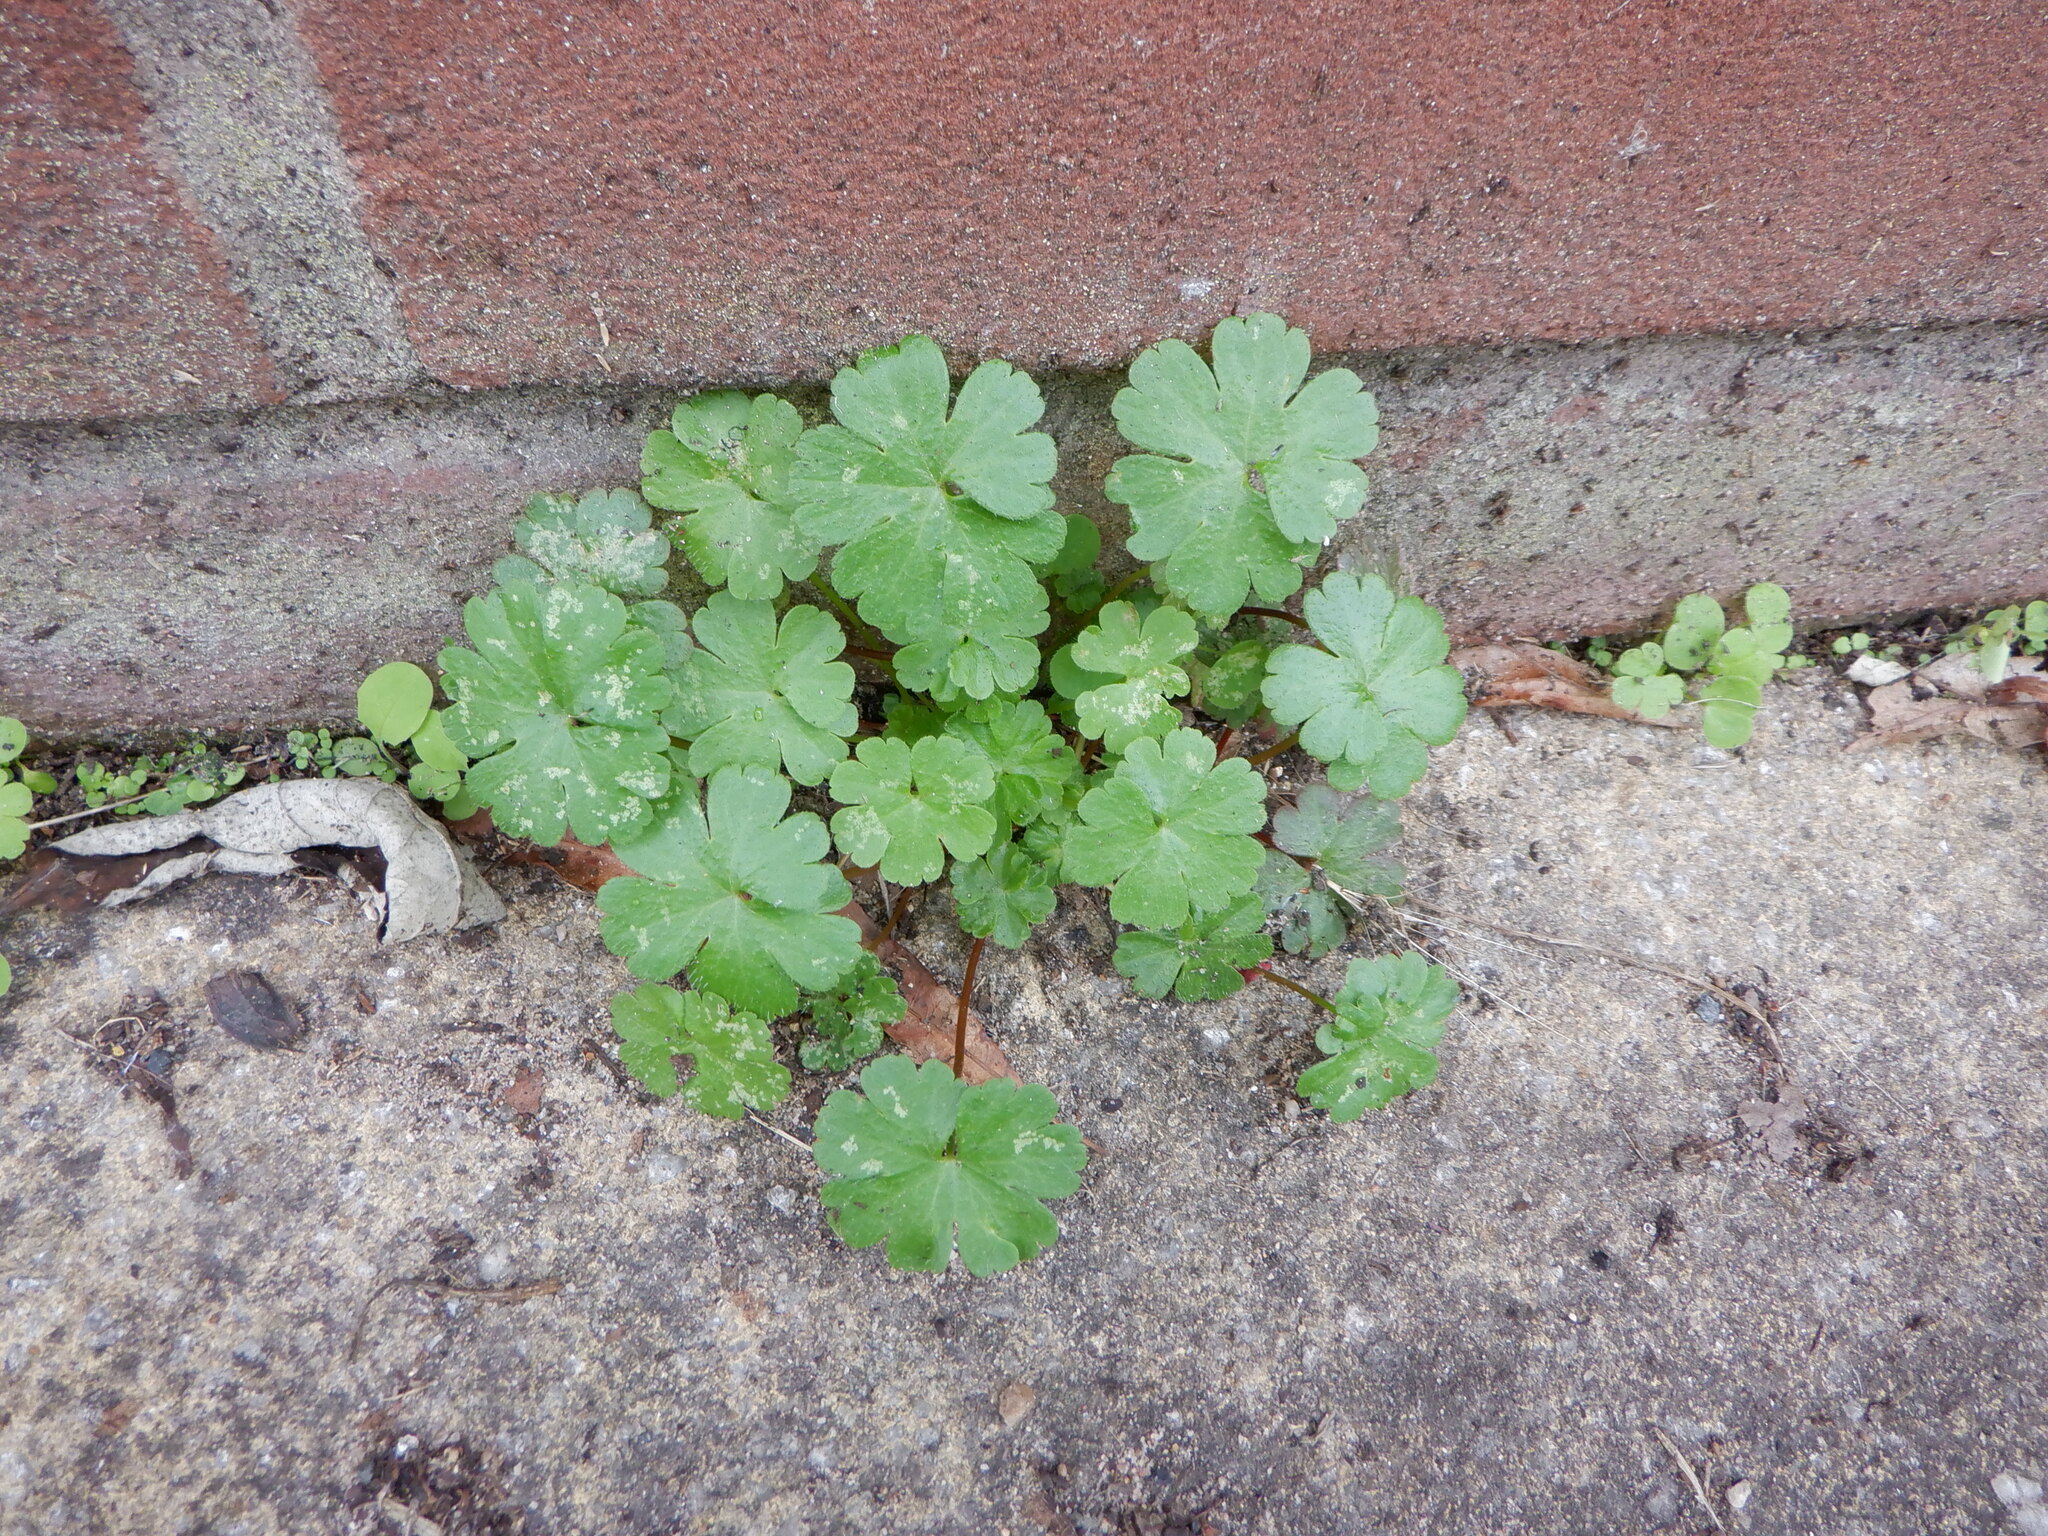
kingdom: Plantae
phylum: Tracheophyta
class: Magnoliopsida
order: Geraniales
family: Geraniaceae
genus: Geranium
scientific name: Geranium lucidum
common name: Shining crane's-bill
